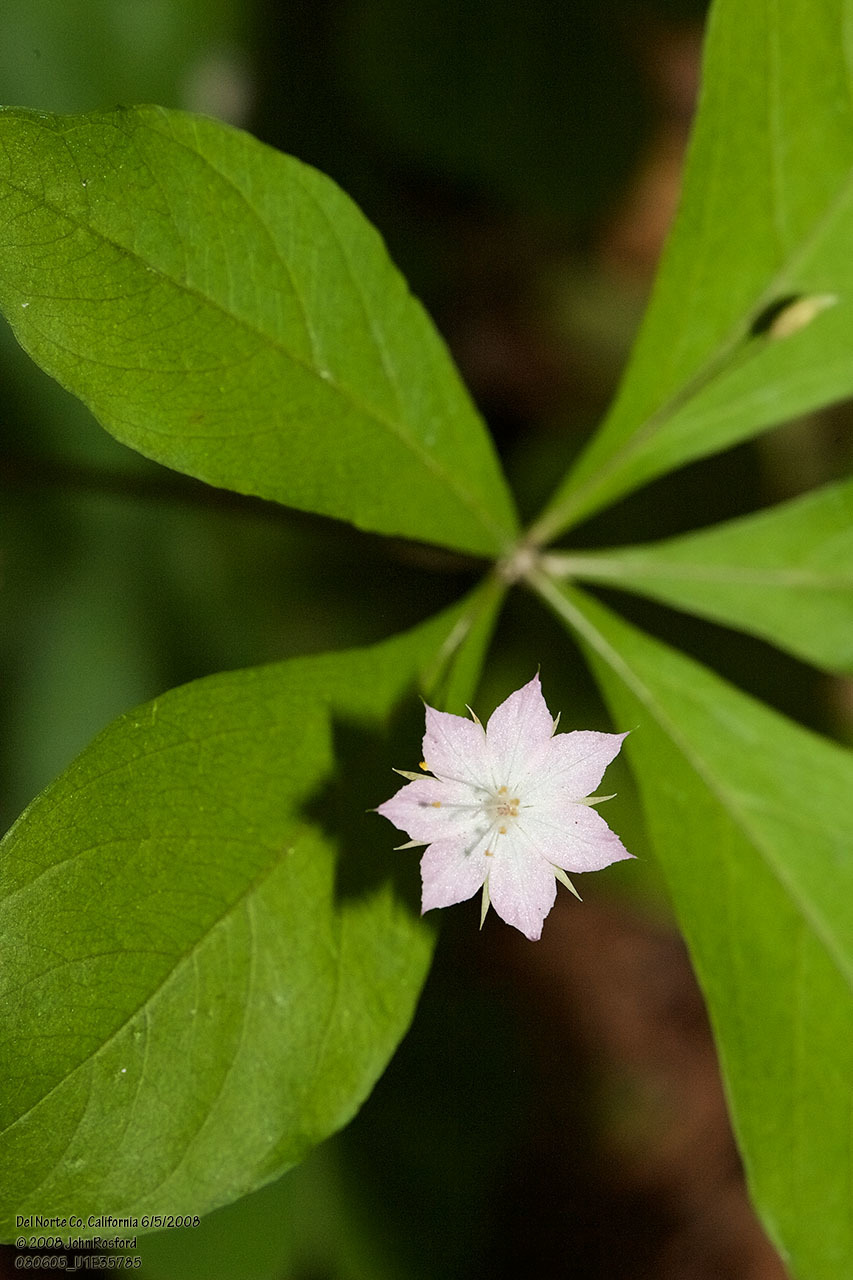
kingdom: Plantae
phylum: Tracheophyta
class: Magnoliopsida
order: Ericales
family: Primulaceae
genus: Lysimachia
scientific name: Lysimachia latifolia
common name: Pacific starflower
